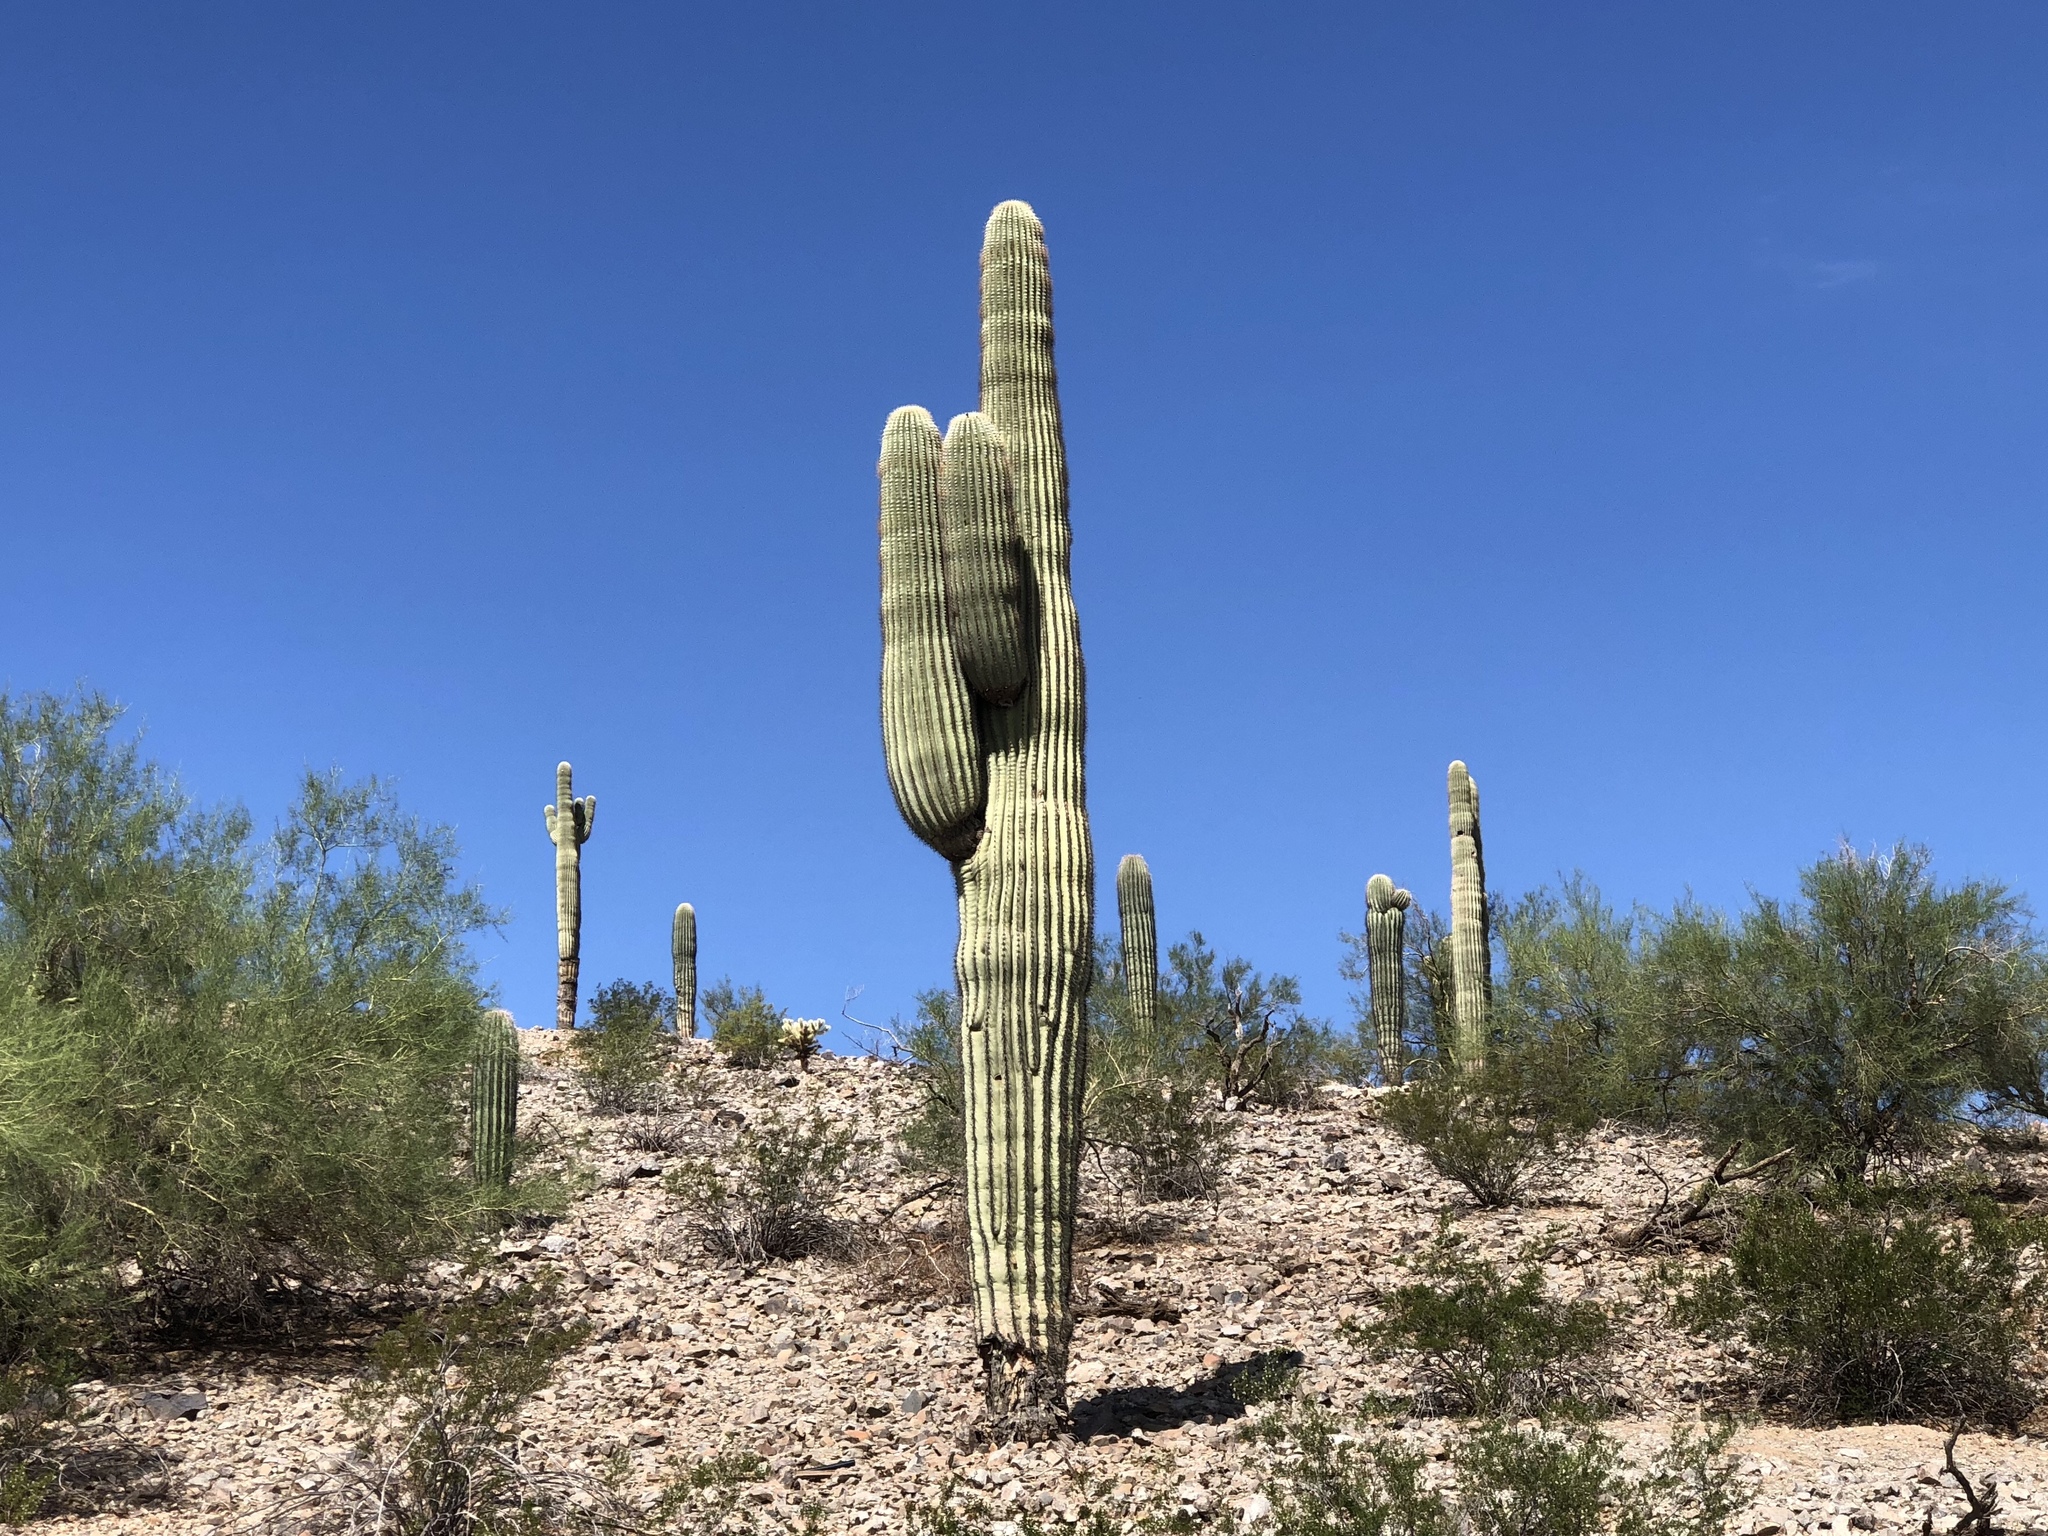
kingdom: Plantae
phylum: Tracheophyta
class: Magnoliopsida
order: Caryophyllales
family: Cactaceae
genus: Carnegiea
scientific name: Carnegiea gigantea
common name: Saguaro
